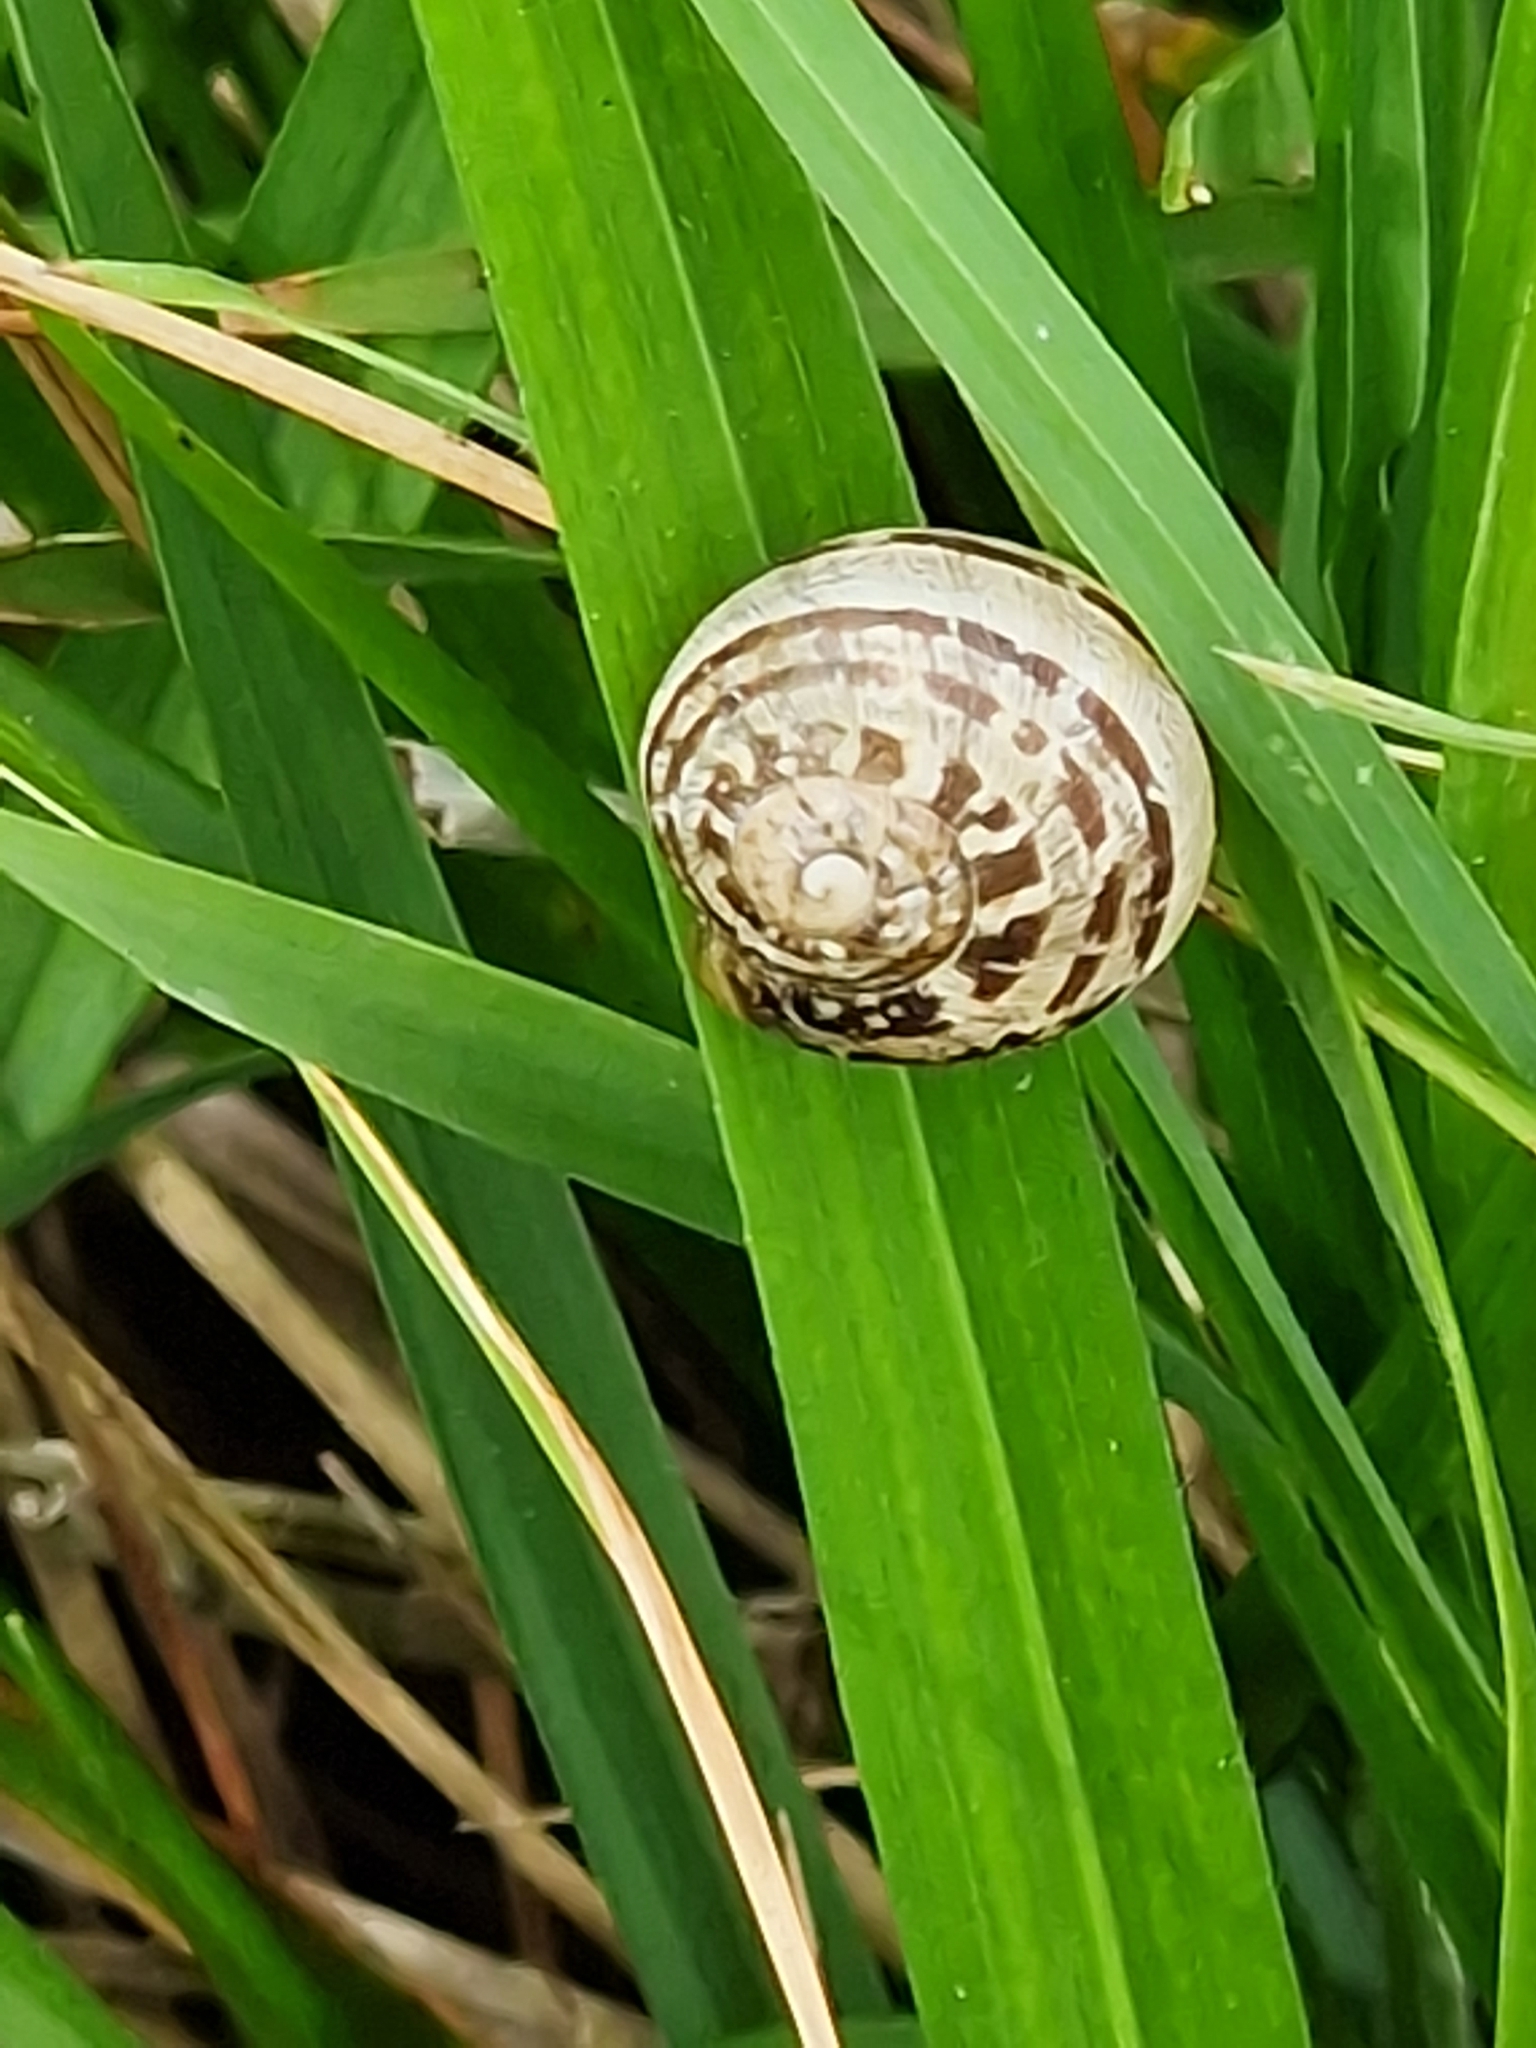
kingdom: Animalia
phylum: Mollusca
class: Gastropoda
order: Stylommatophora
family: Helicidae
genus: Cornu
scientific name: Cornu aspersum
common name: Brown garden snail
